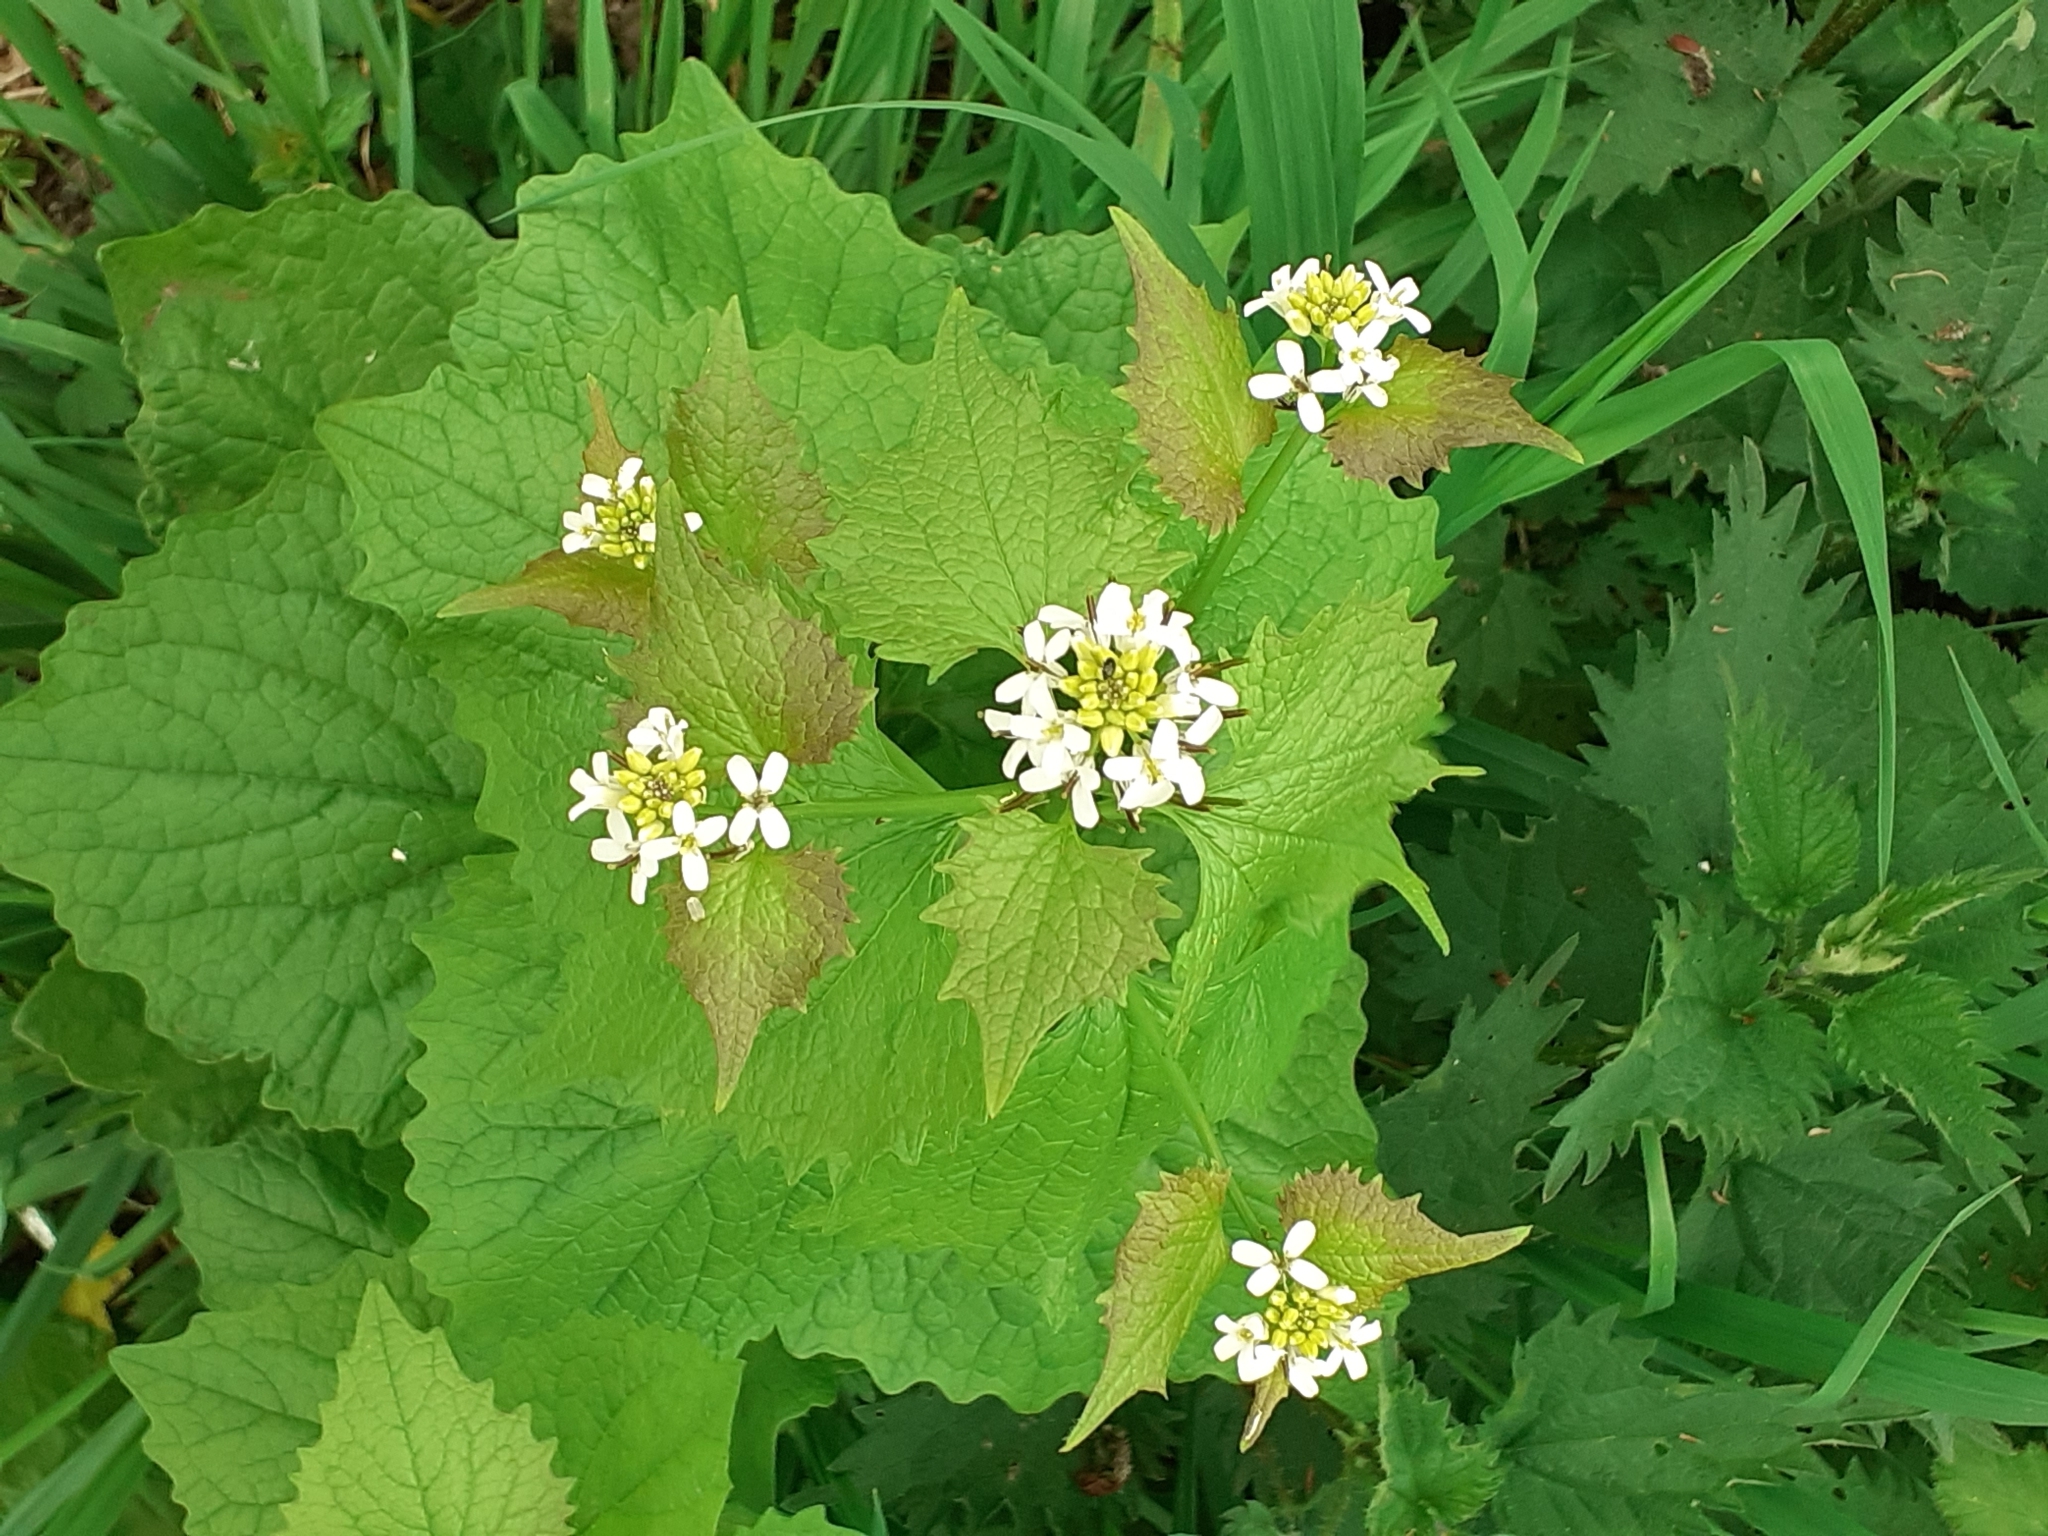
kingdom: Plantae
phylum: Tracheophyta
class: Magnoliopsida
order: Brassicales
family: Brassicaceae
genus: Alliaria
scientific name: Alliaria petiolata
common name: Garlic mustard
